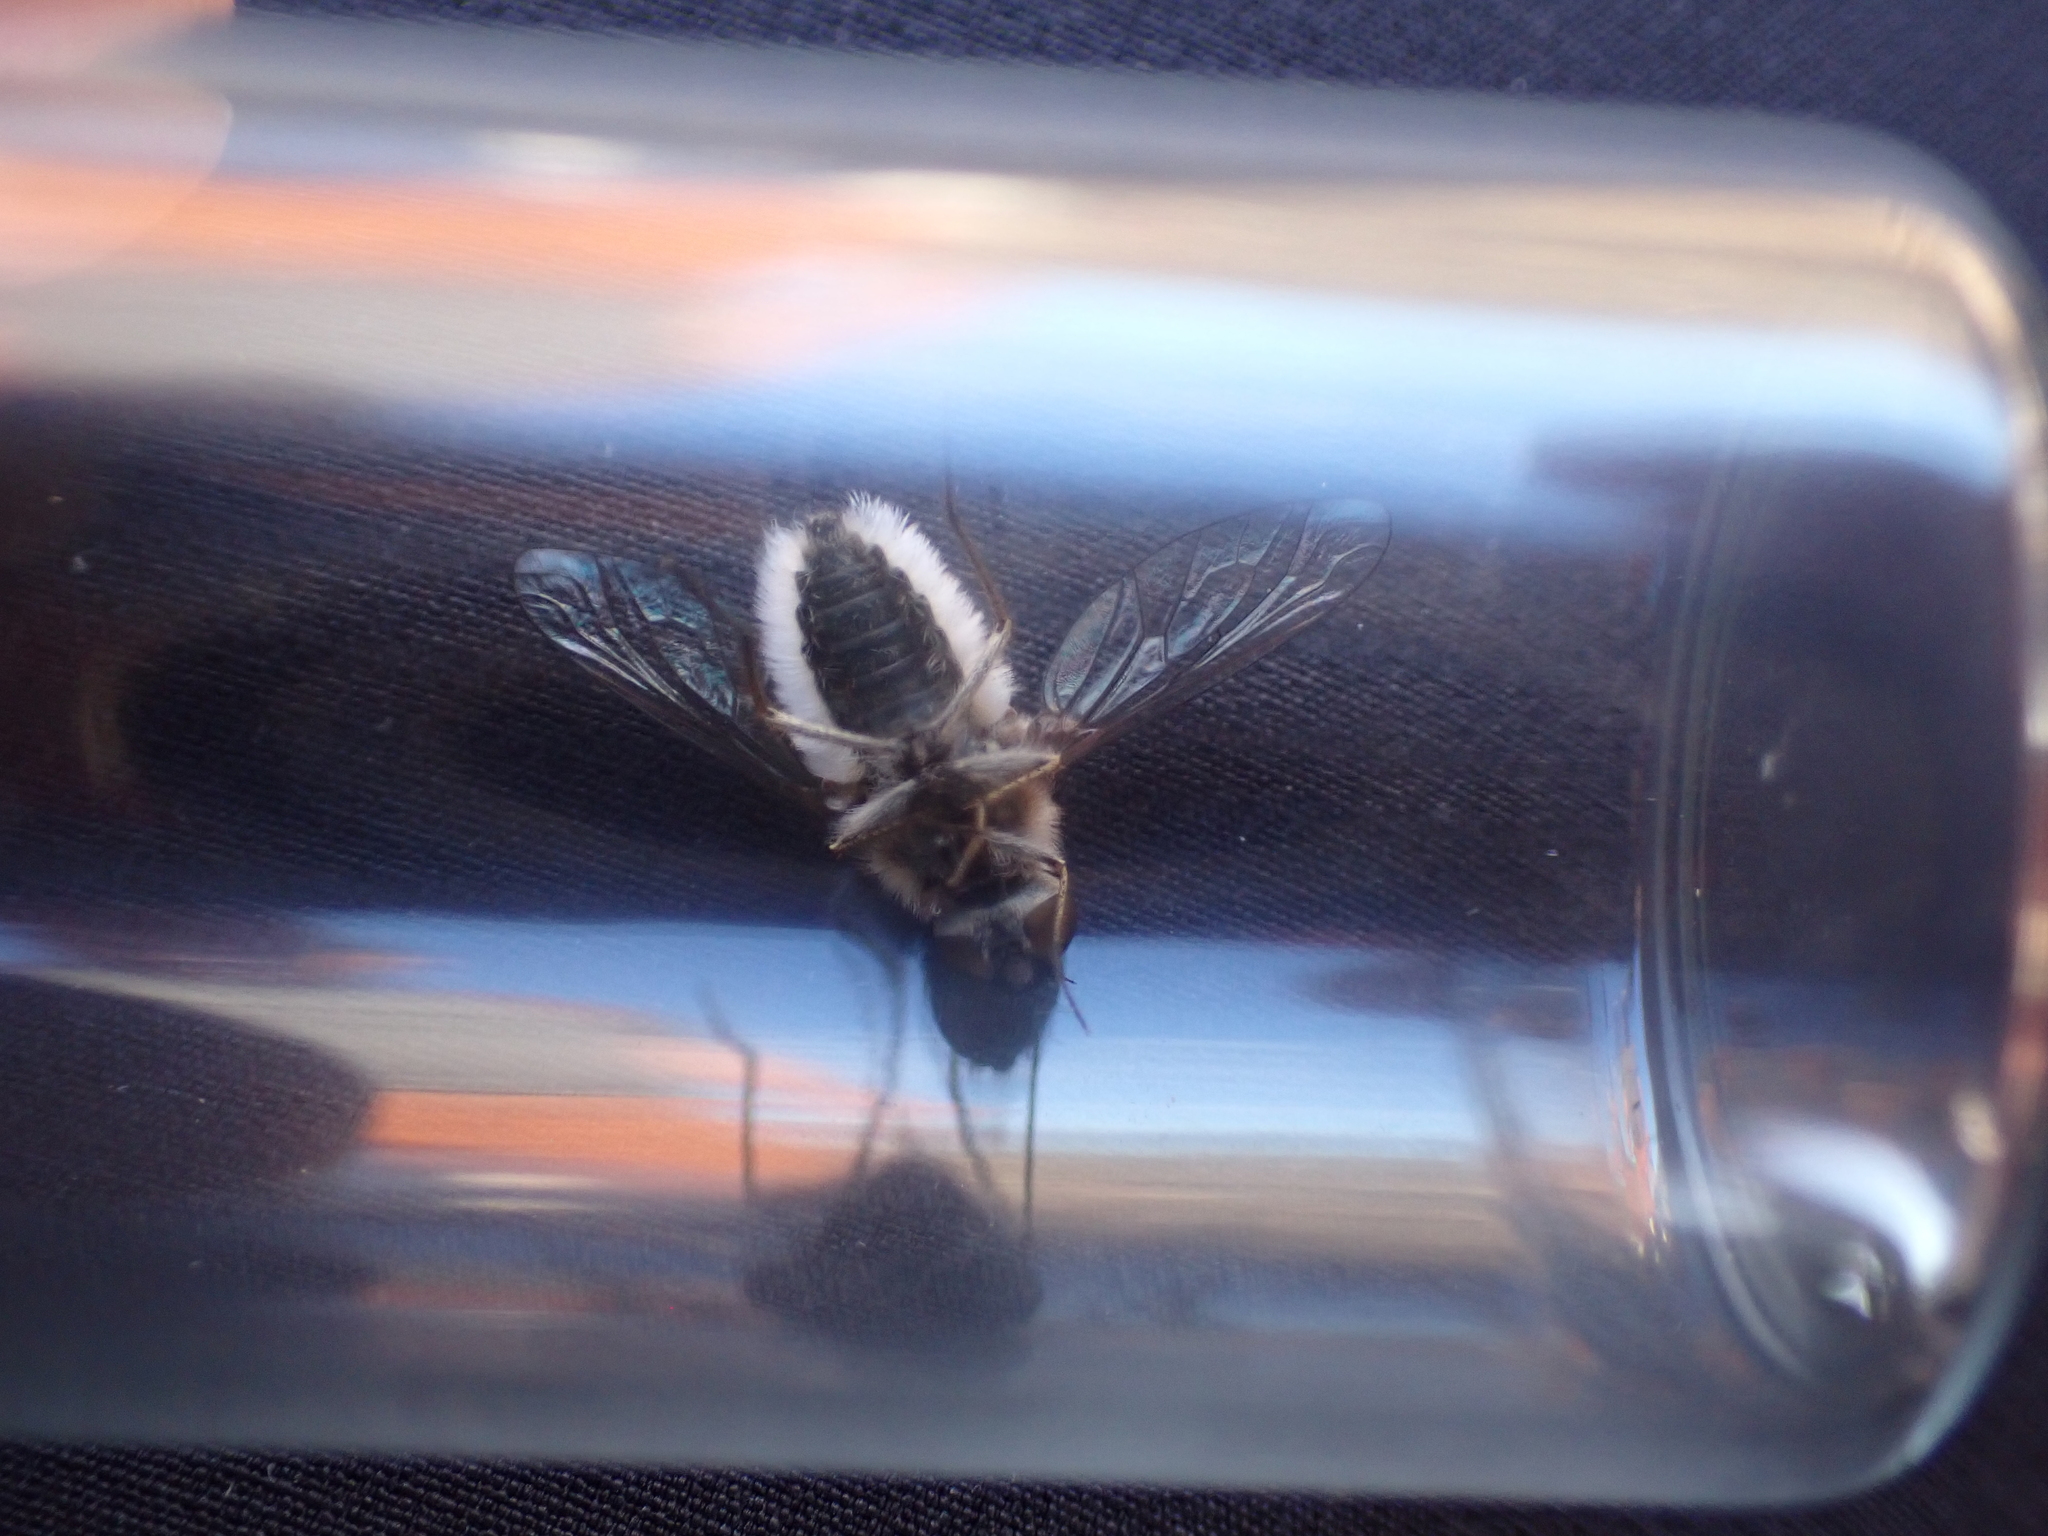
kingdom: Animalia
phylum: Arthropoda
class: Insecta
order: Diptera
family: Bombyliidae
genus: Aphoebantus
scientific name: Aphoebantus mus
